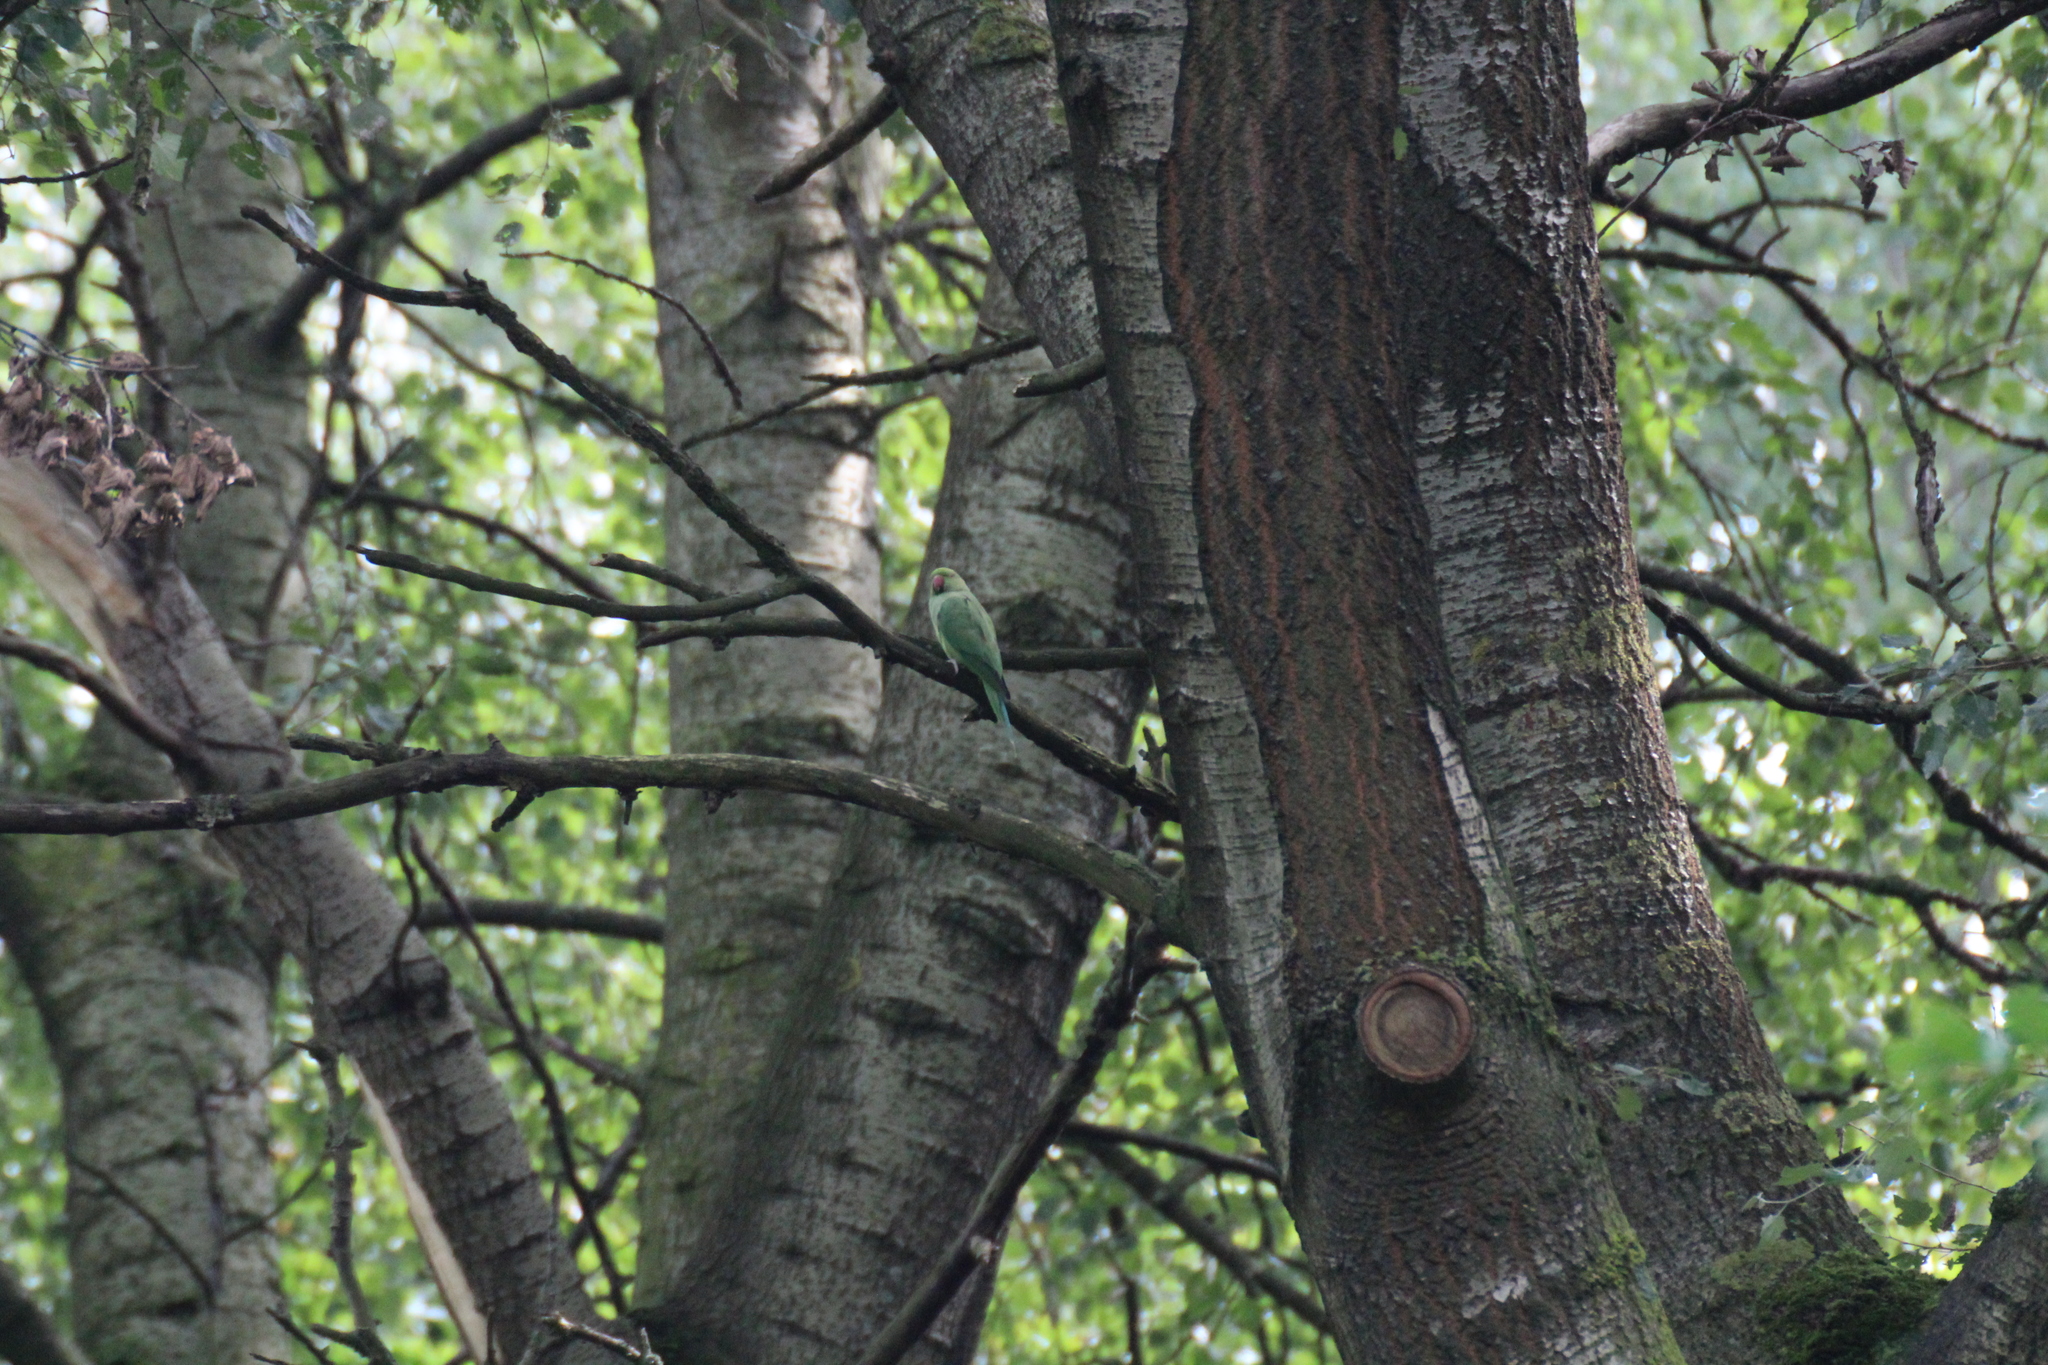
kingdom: Animalia
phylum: Chordata
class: Aves
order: Psittaciformes
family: Psittacidae
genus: Psittacula
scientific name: Psittacula krameri
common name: Rose-ringed parakeet
